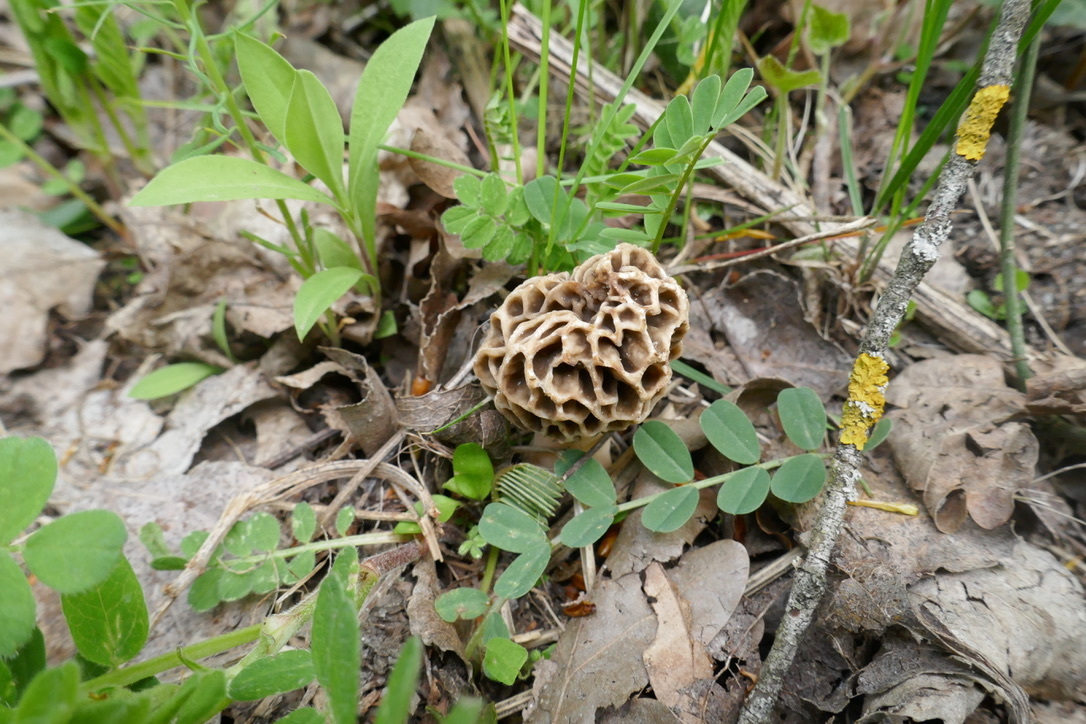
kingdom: Fungi
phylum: Ascomycota
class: Pezizomycetes
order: Pezizales
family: Morchellaceae
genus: Morchella
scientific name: Morchella esculenta
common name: Morel
